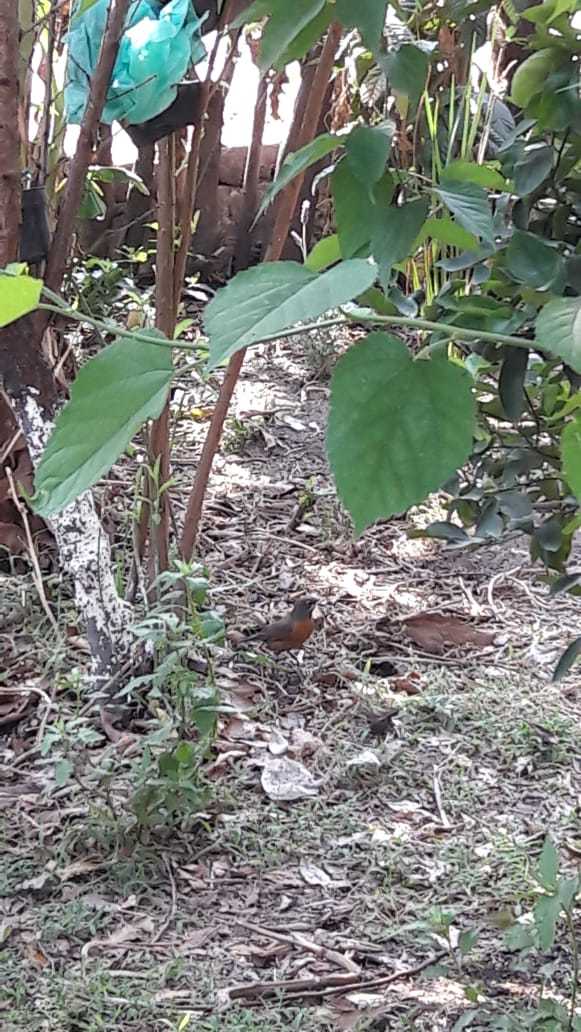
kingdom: Animalia
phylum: Chordata
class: Aves
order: Passeriformes
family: Turdidae
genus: Turdus
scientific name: Turdus migratorius
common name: American robin
